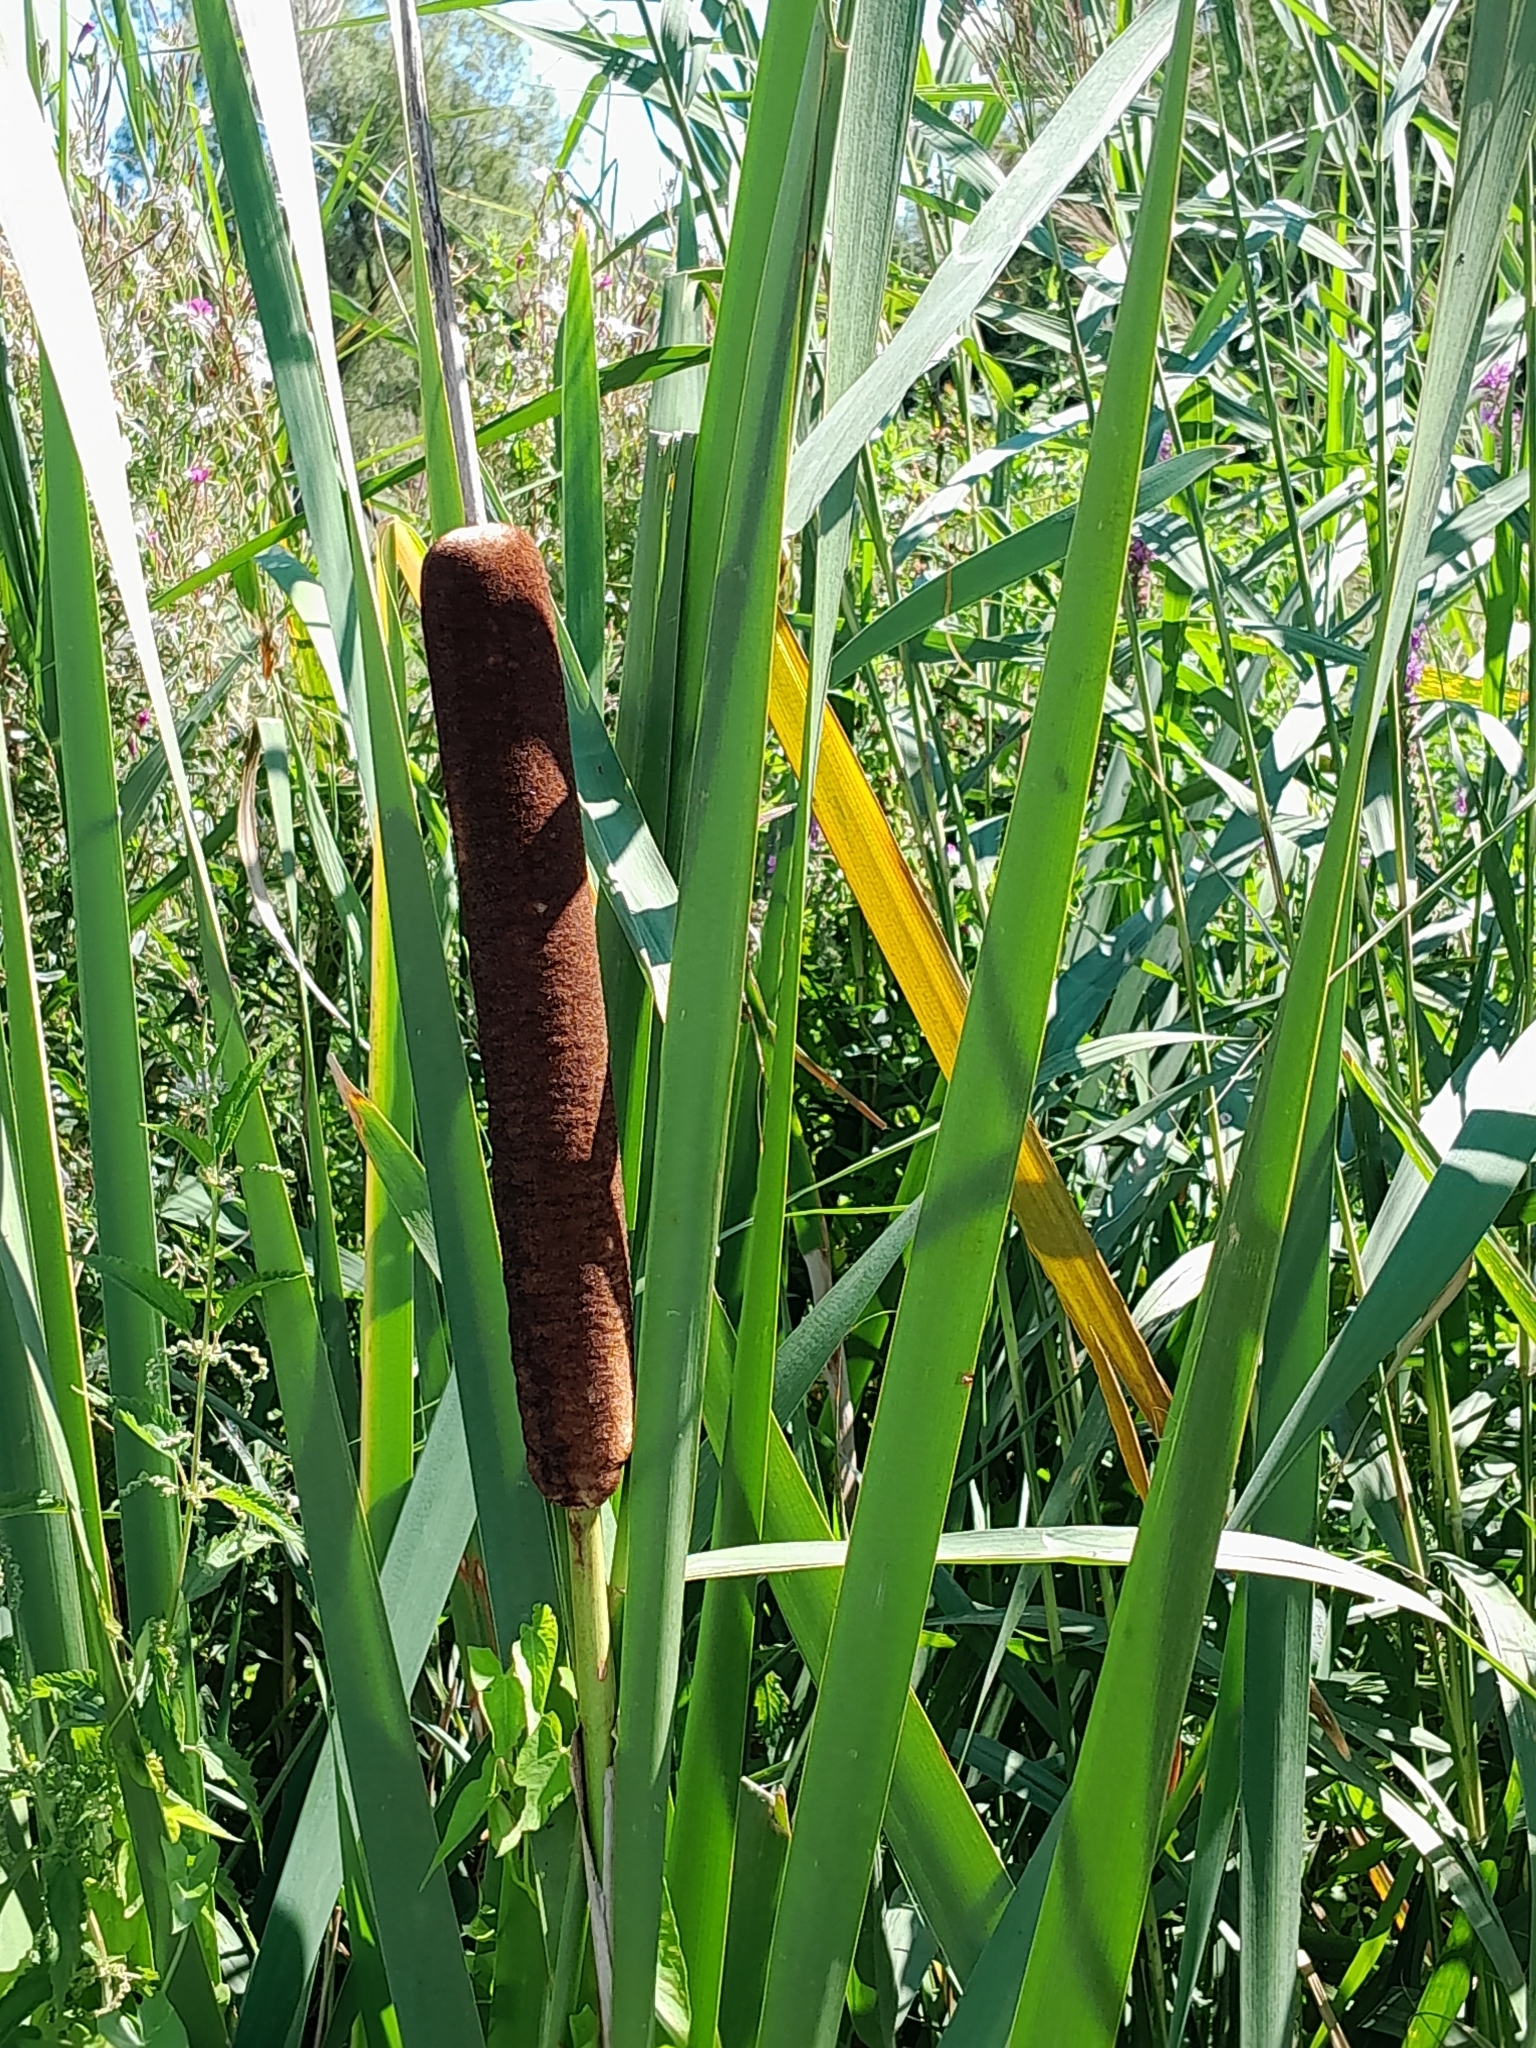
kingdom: Plantae
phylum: Tracheophyta
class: Liliopsida
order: Poales
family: Typhaceae
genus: Typha
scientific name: Typha latifolia
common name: Broadleaf cattail
